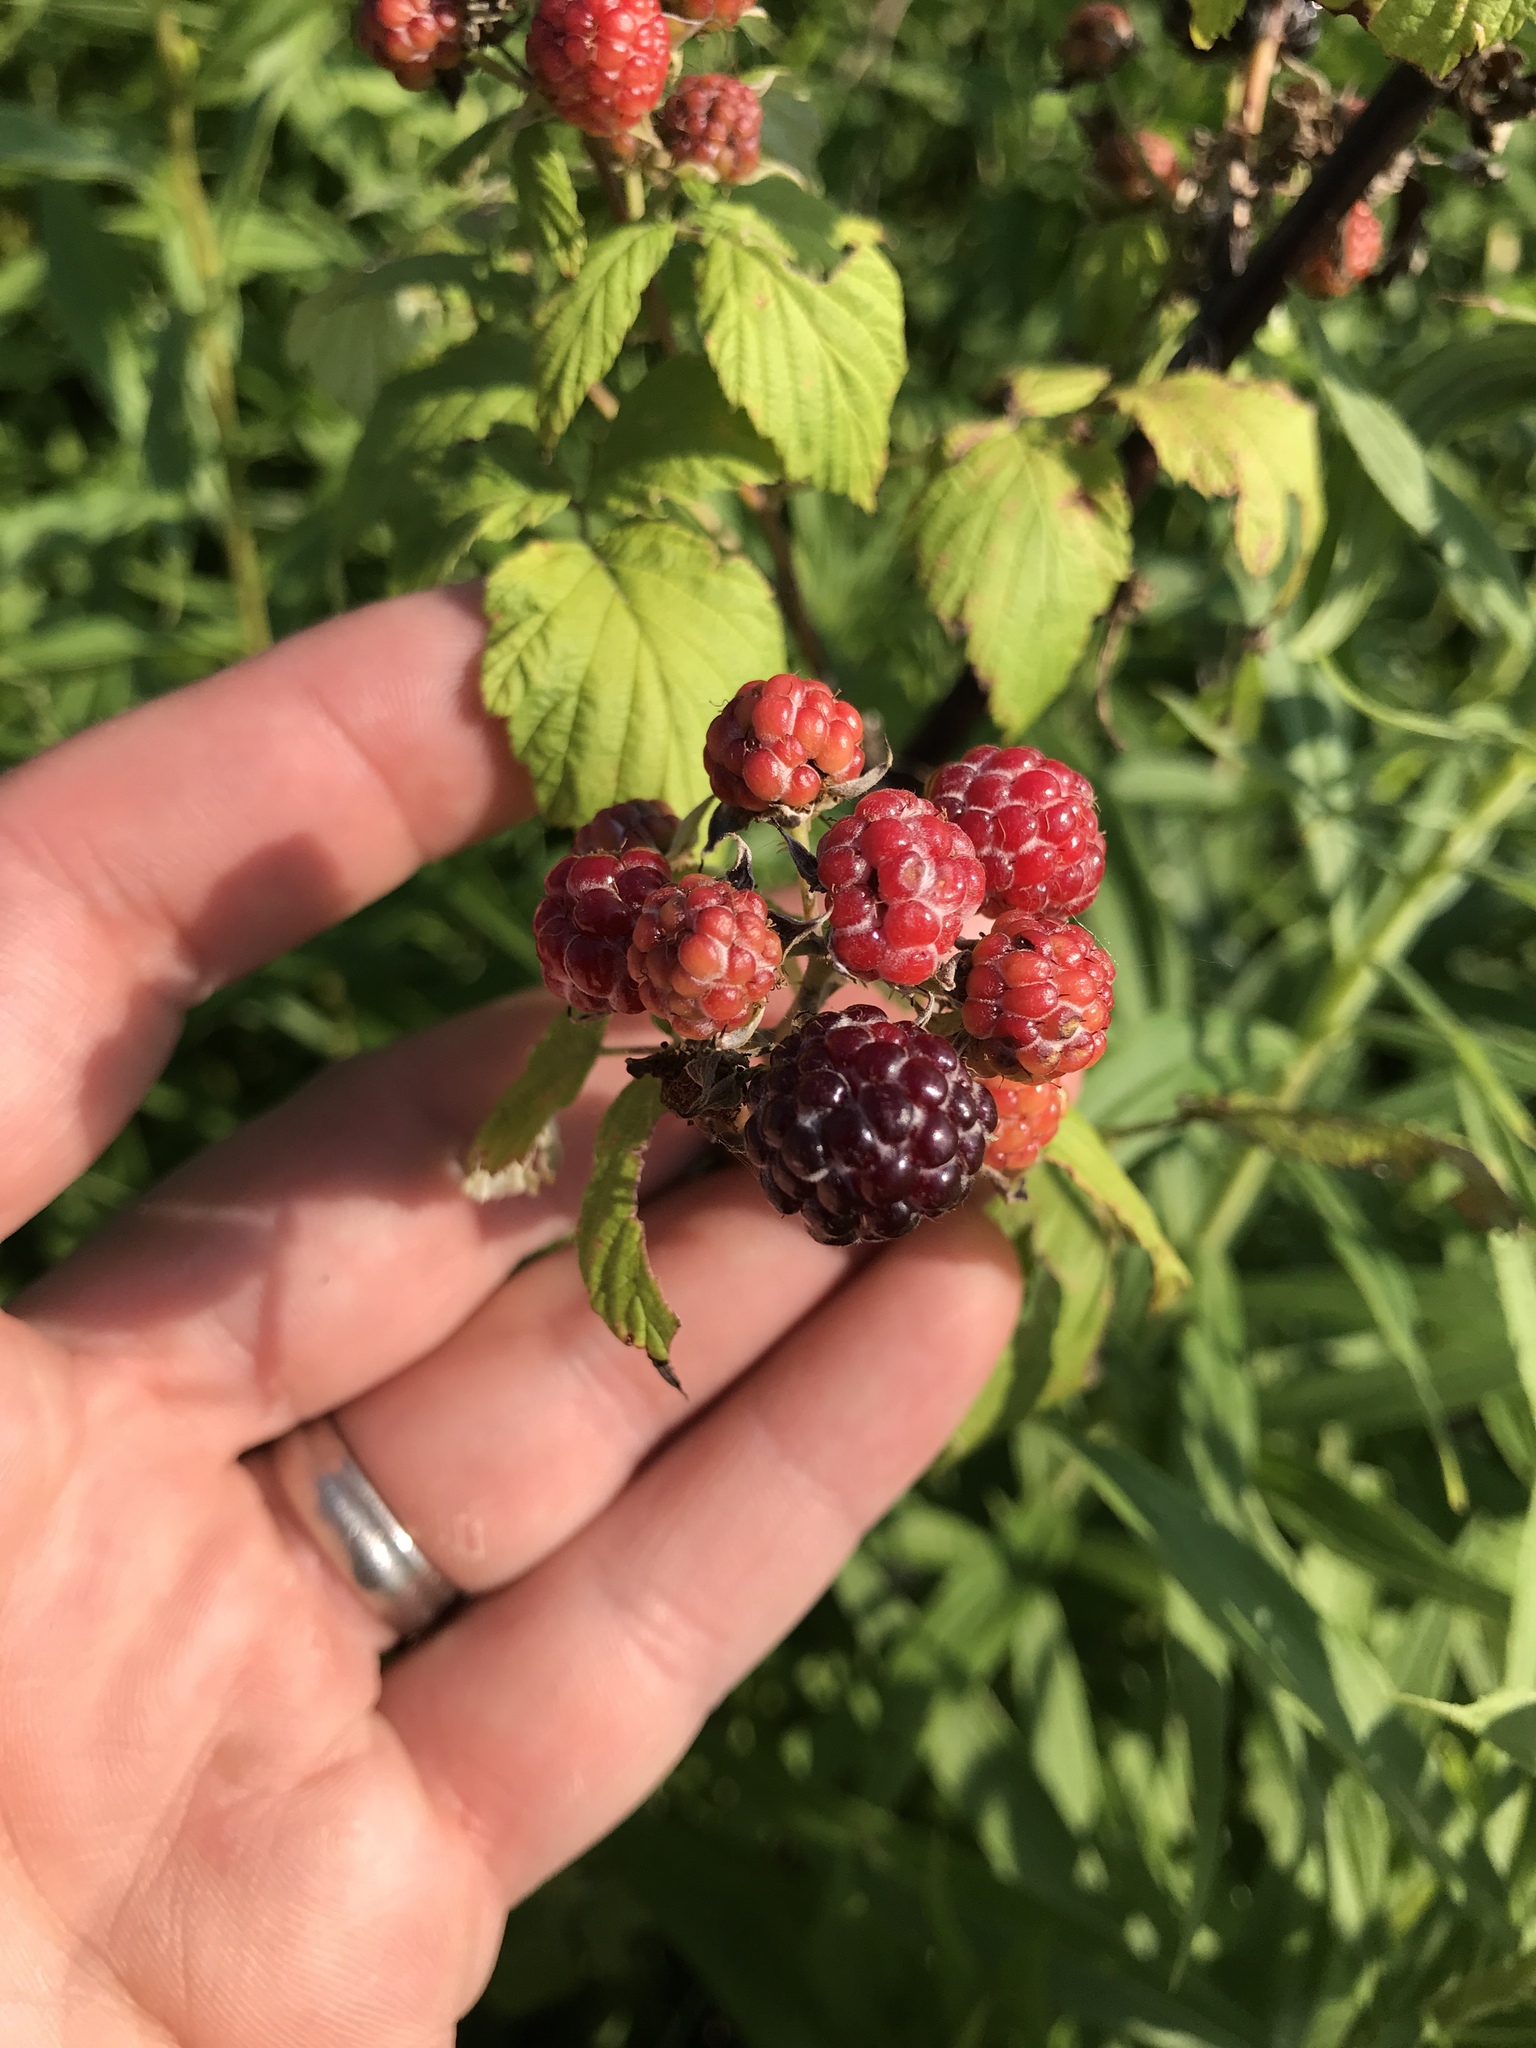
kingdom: Plantae
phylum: Tracheophyta
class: Magnoliopsida
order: Rosales
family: Rosaceae
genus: Rubus
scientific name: Rubus occidentalis
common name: Black raspberry
